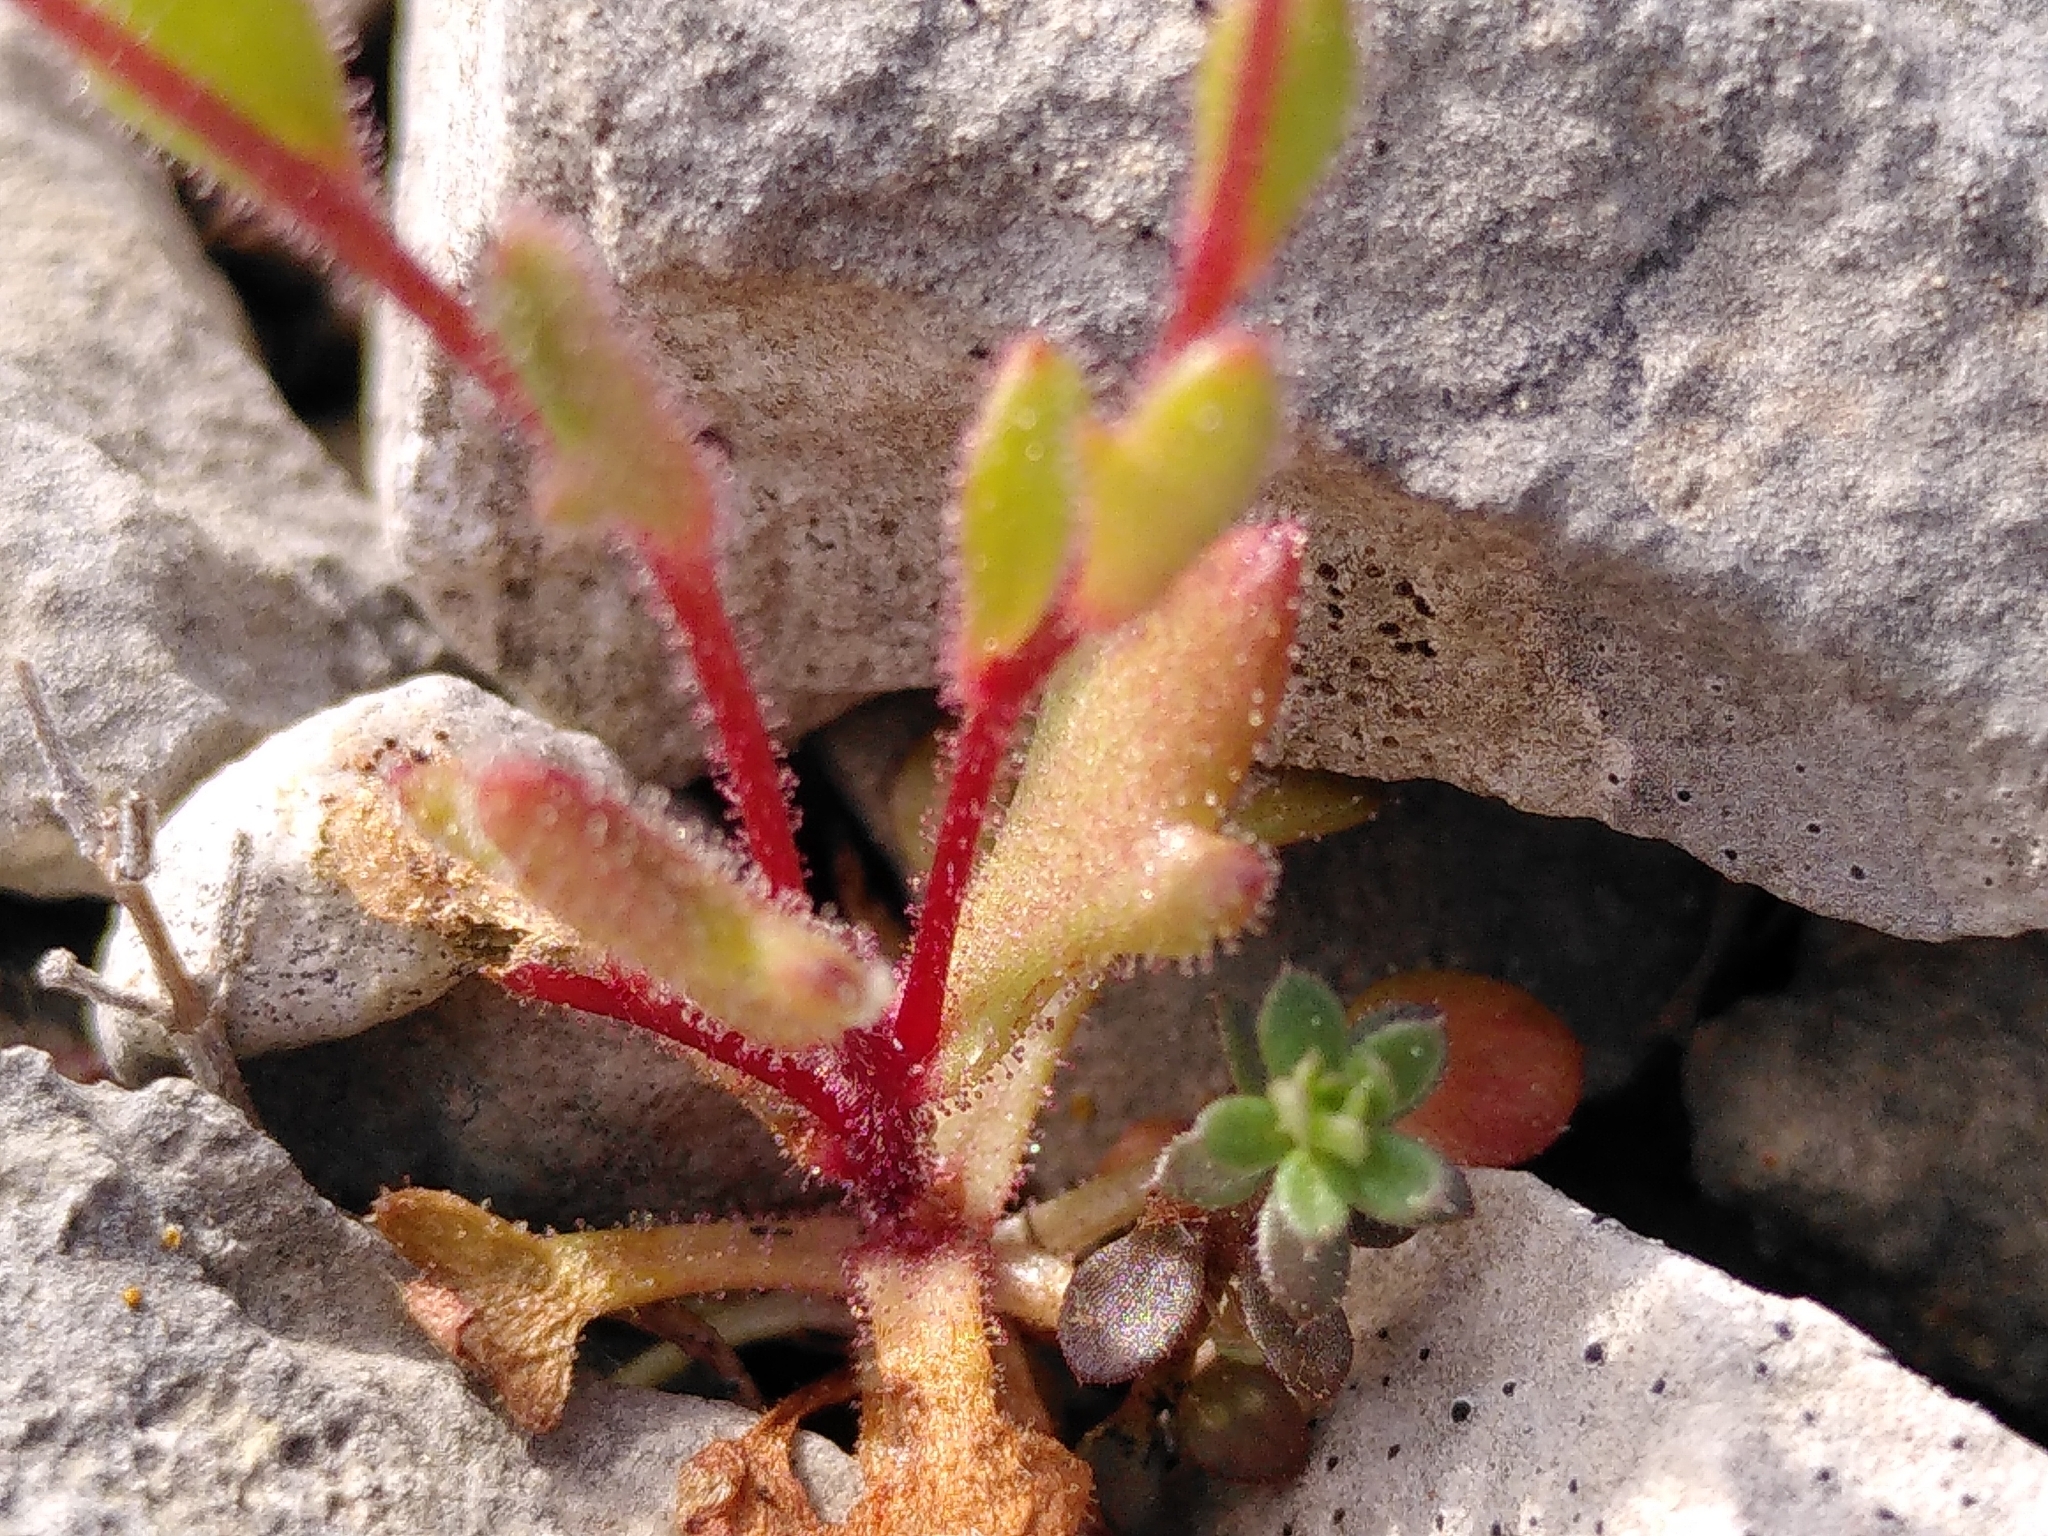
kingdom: Plantae
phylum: Tracheophyta
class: Magnoliopsida
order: Saxifragales
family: Saxifragaceae
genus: Saxifraga
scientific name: Saxifraga tridactylites
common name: Rue-leaved saxifrage
